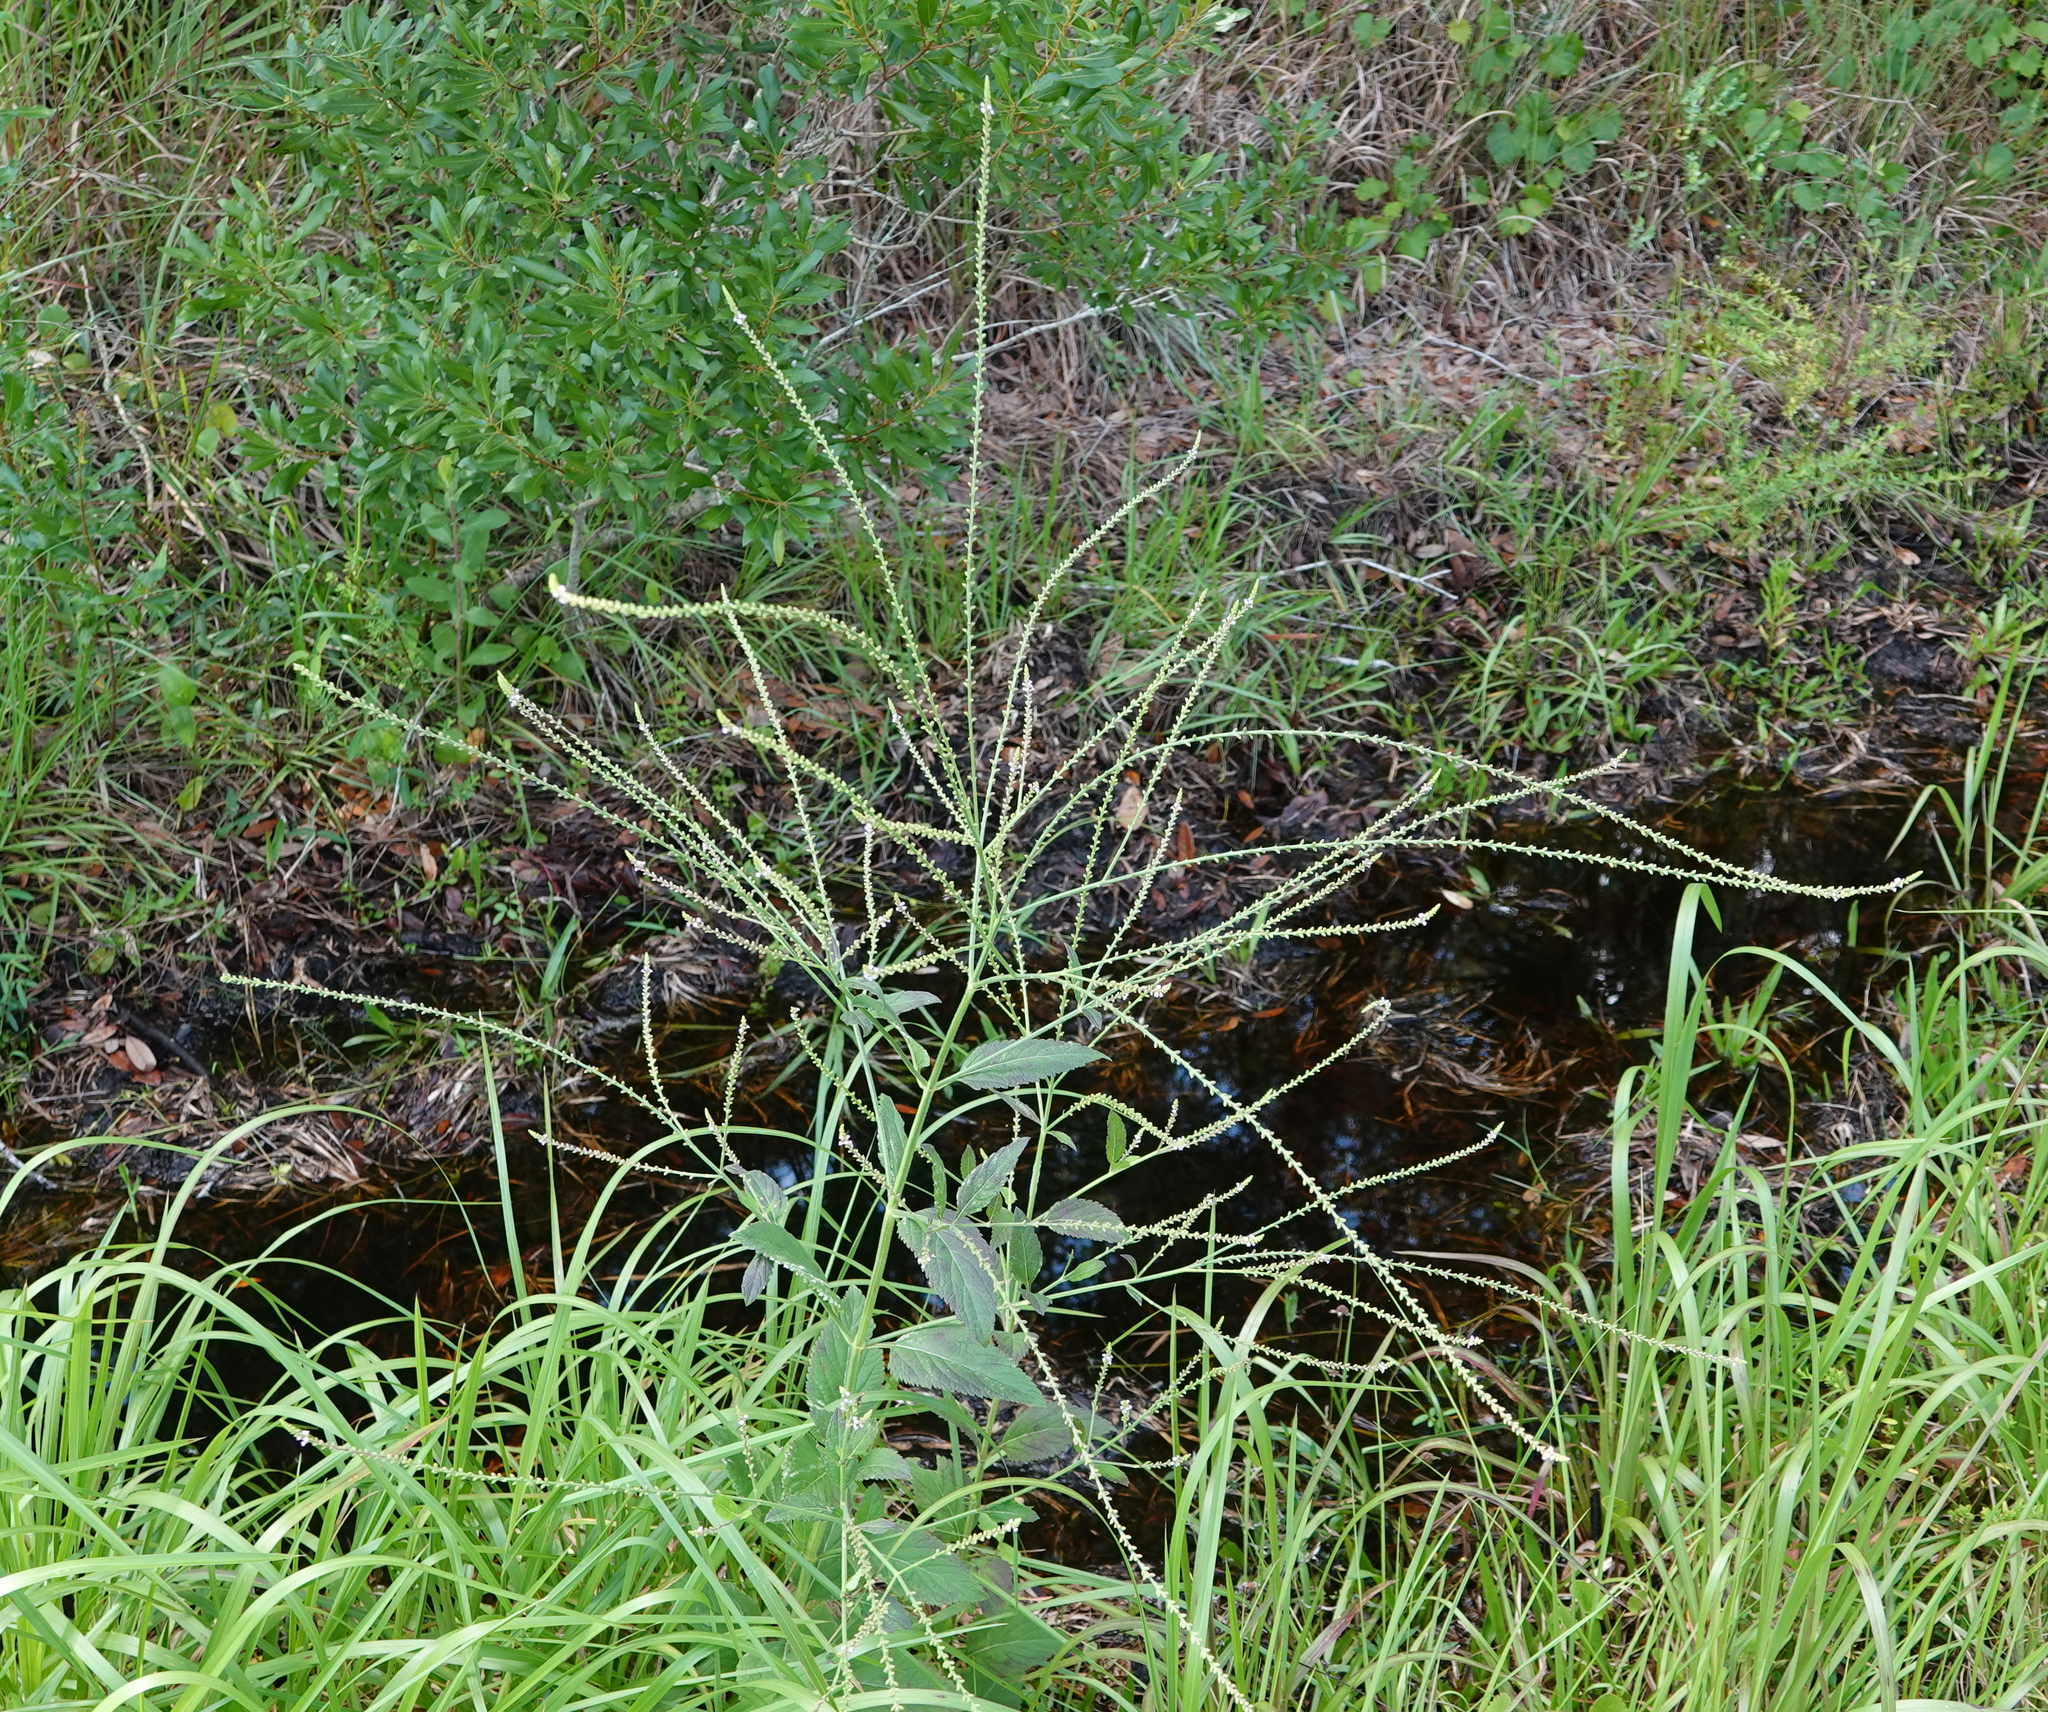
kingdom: Plantae
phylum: Tracheophyta
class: Magnoliopsida
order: Lamiales
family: Verbenaceae
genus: Verbena
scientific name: Verbena scabra
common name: Sandpaper vervain
